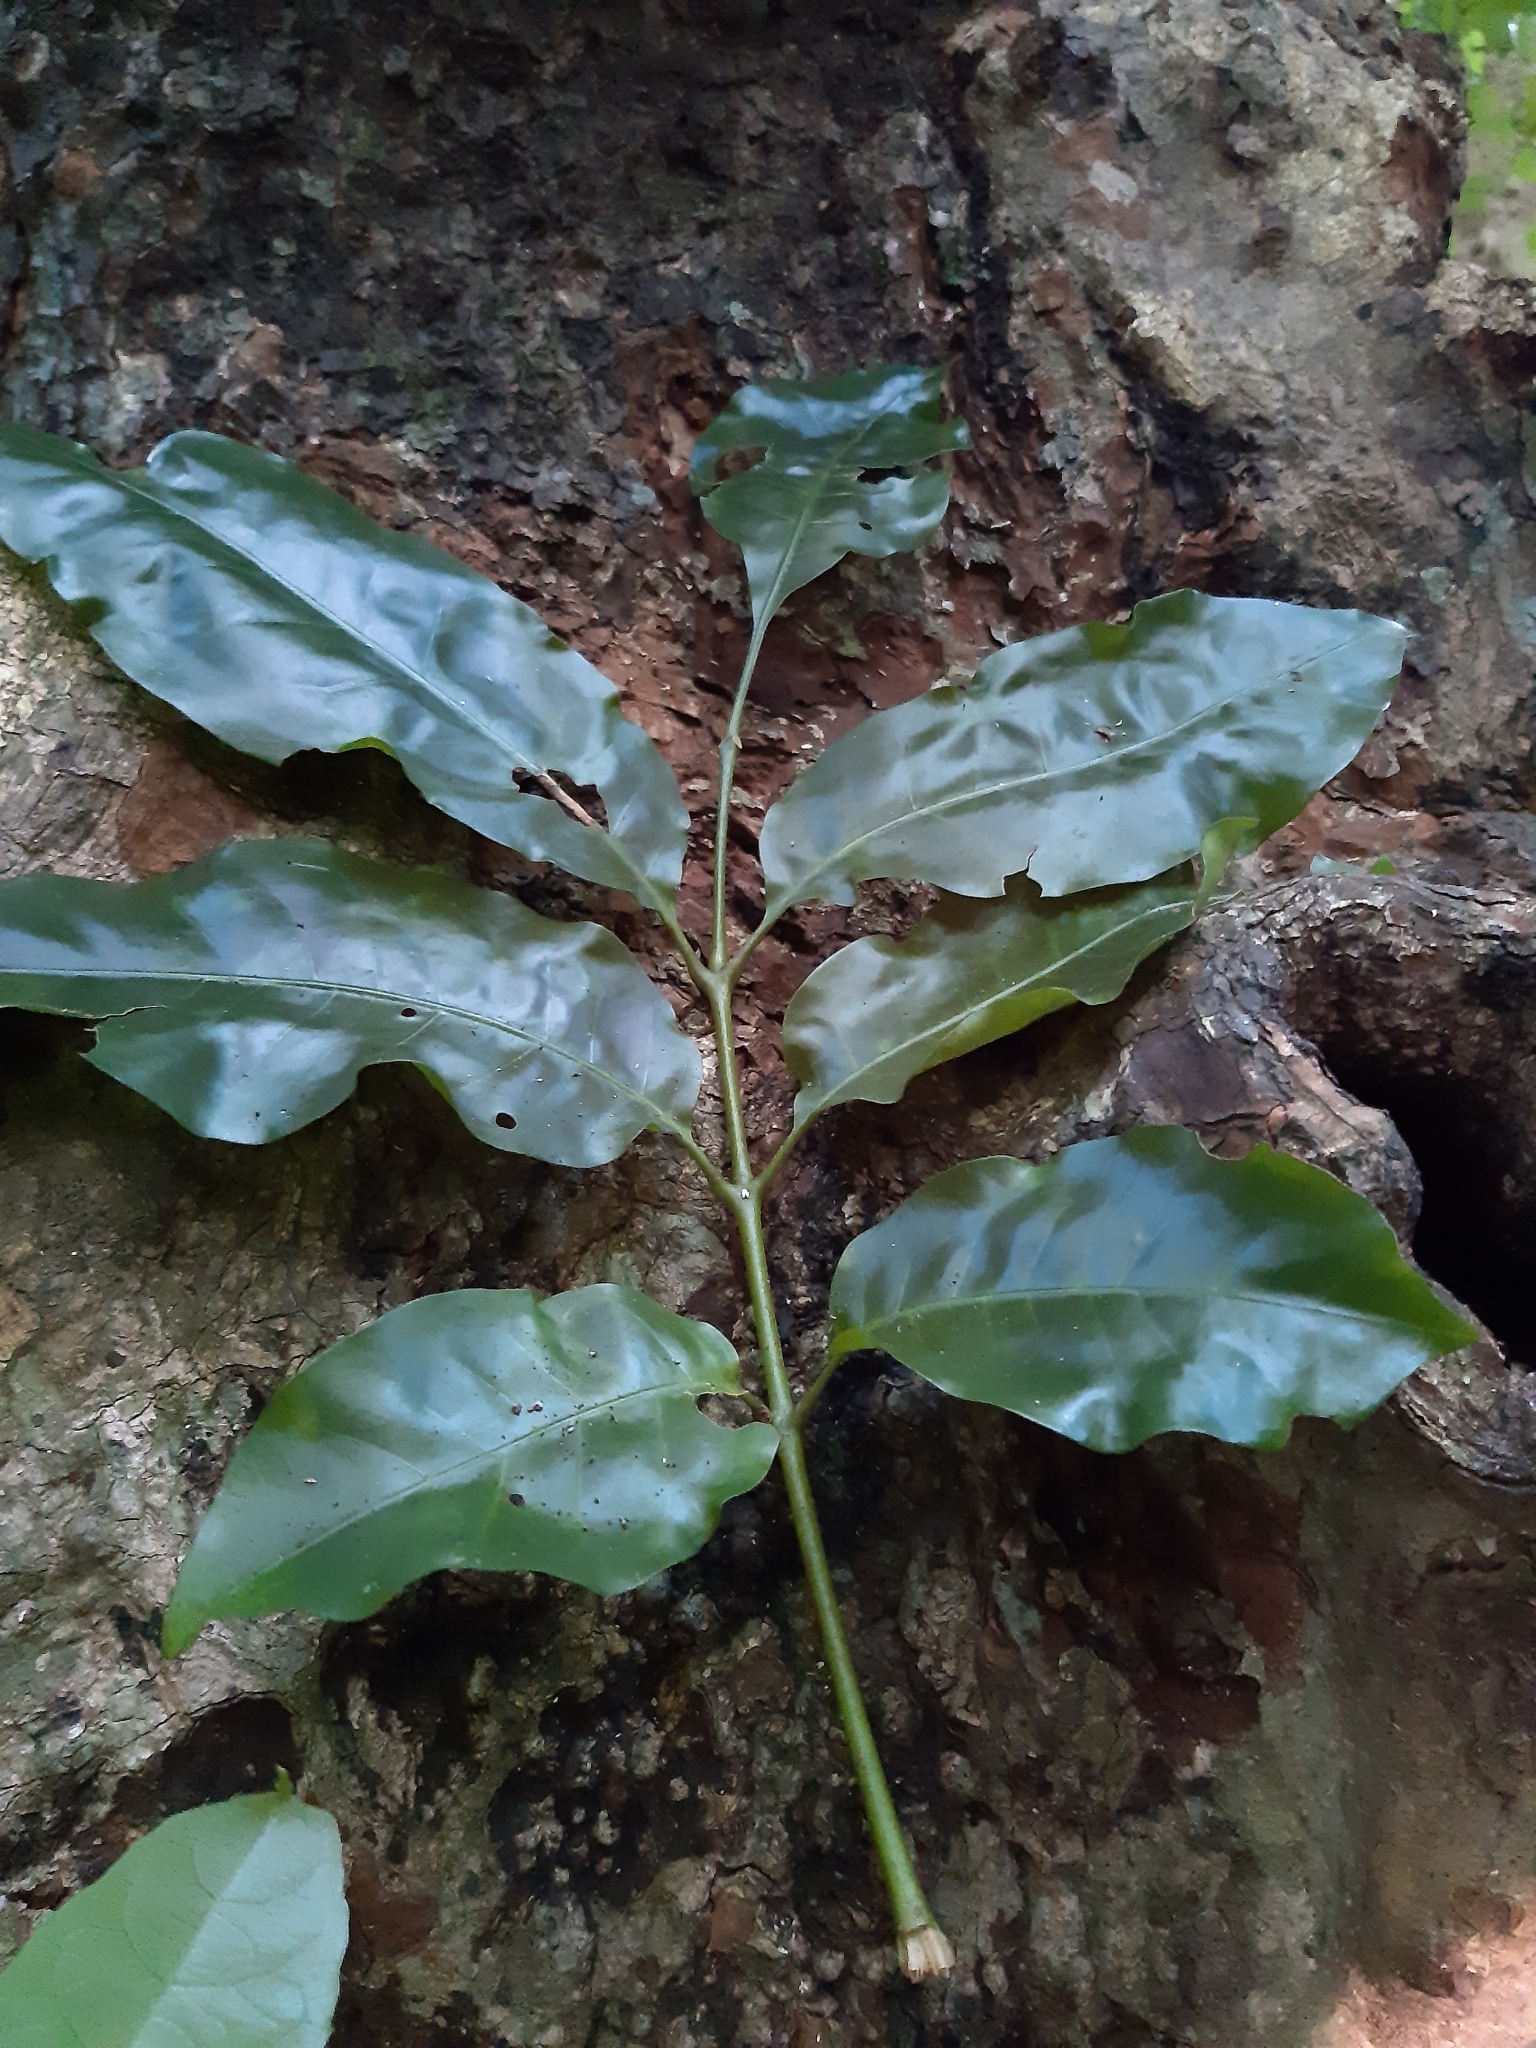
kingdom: Plantae
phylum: Tracheophyta
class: Magnoliopsida
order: Sapindales
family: Meliaceae
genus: Didymocheton
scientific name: Didymocheton spectabilis
